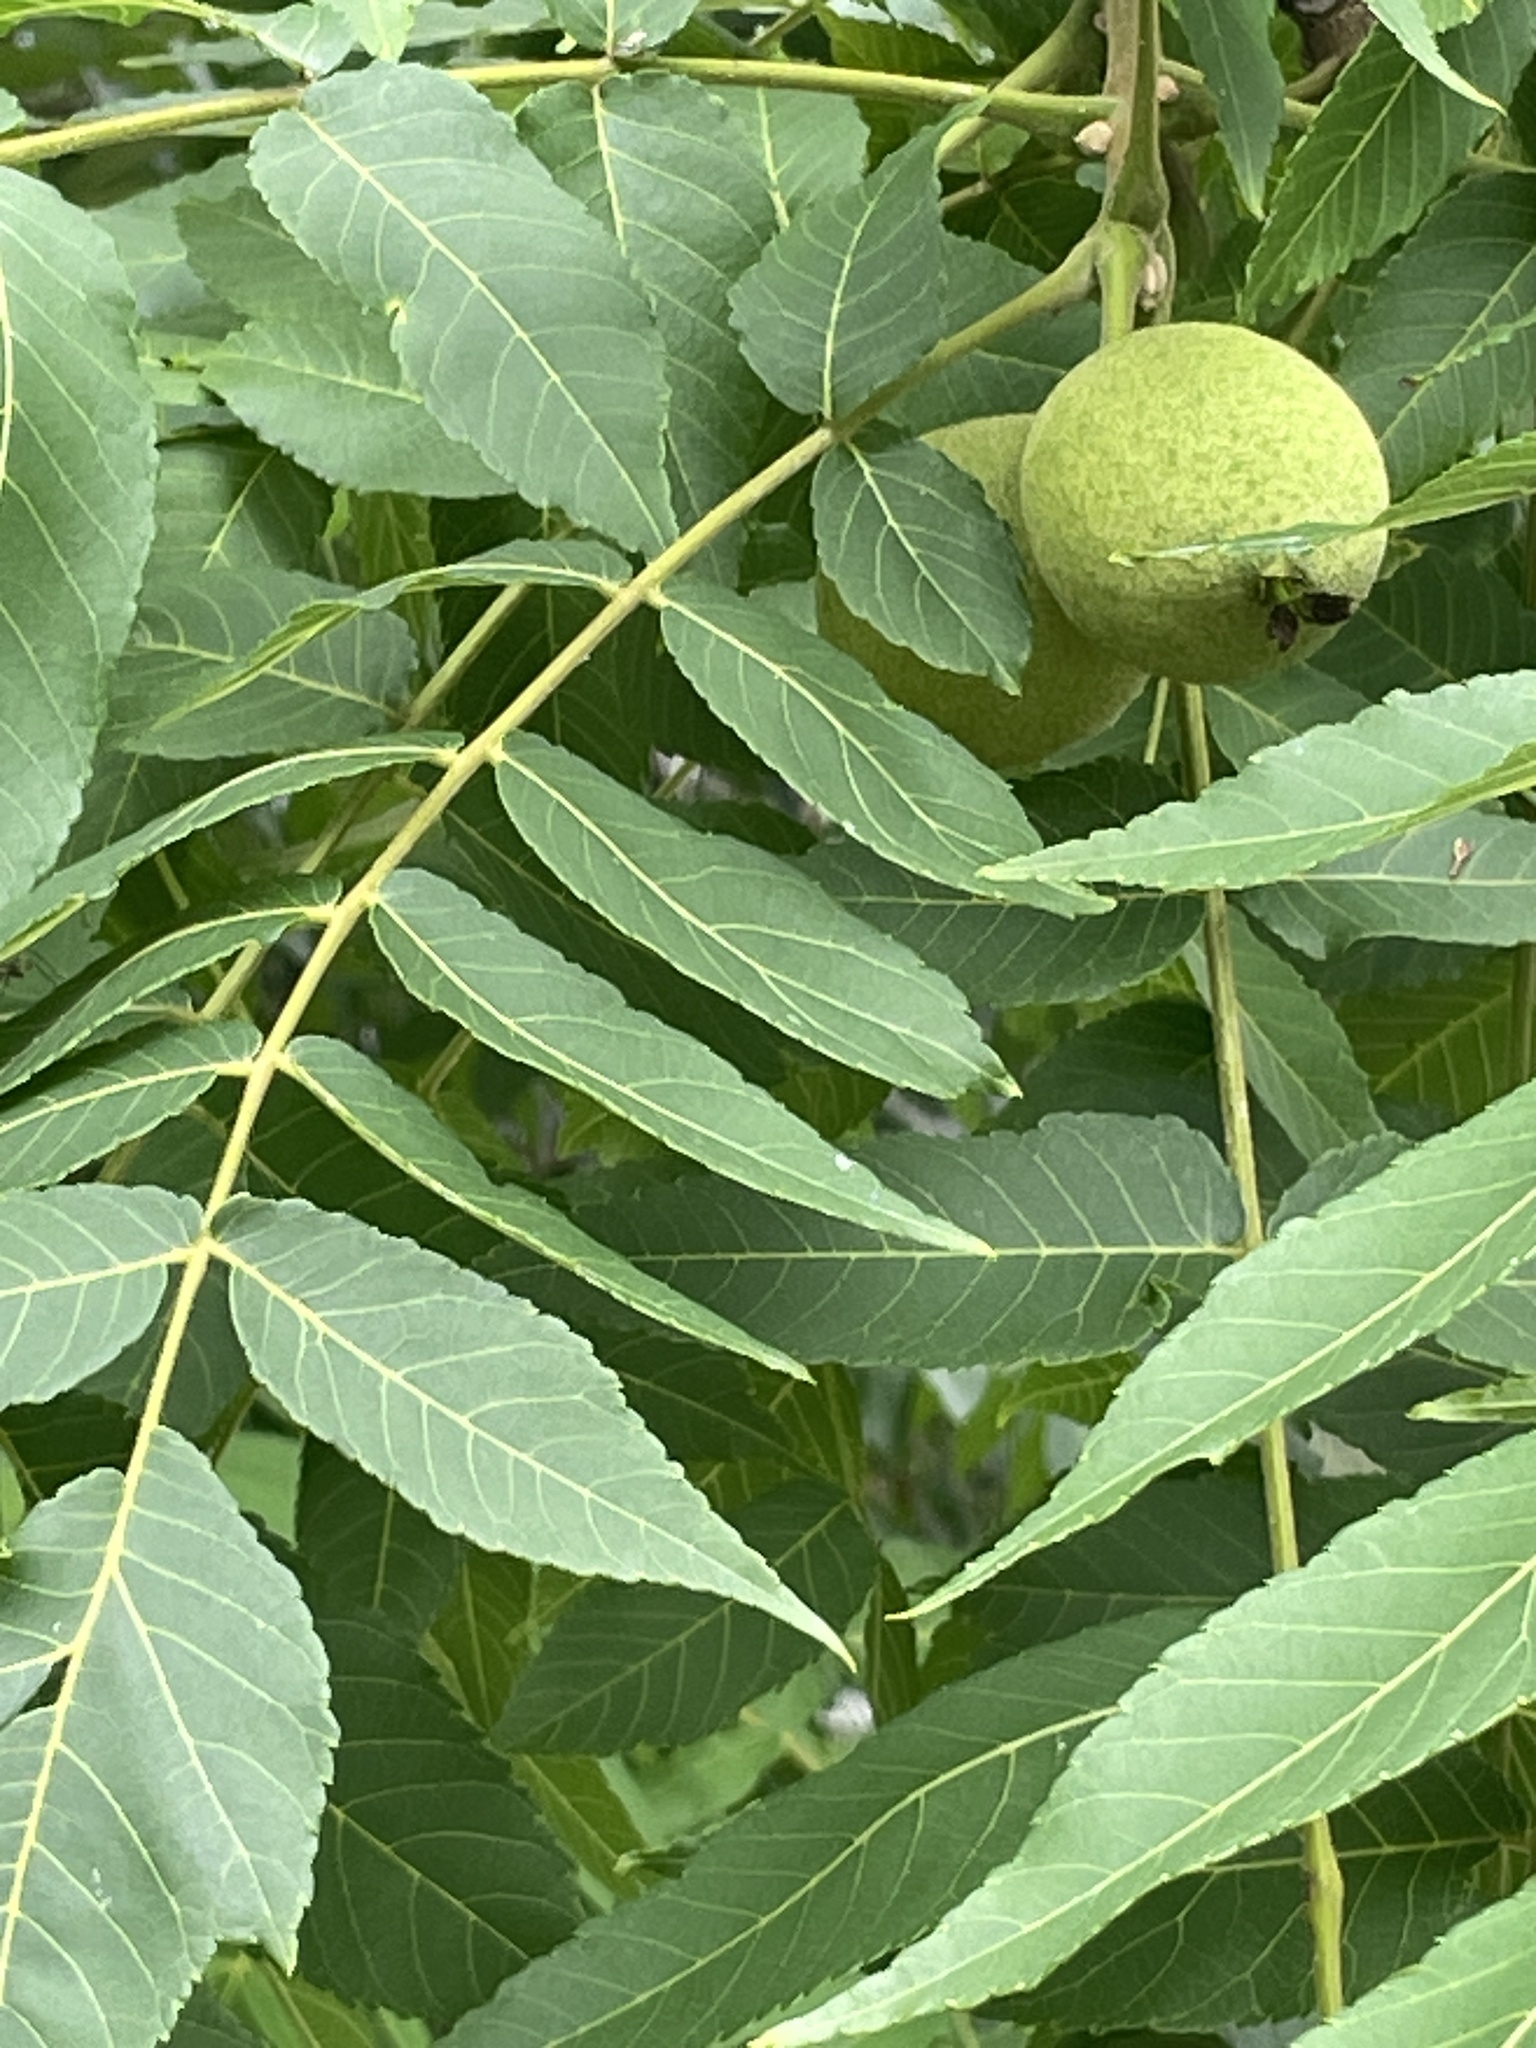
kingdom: Plantae
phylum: Tracheophyta
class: Magnoliopsida
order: Fagales
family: Juglandaceae
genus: Juglans
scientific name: Juglans nigra
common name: Black walnut
